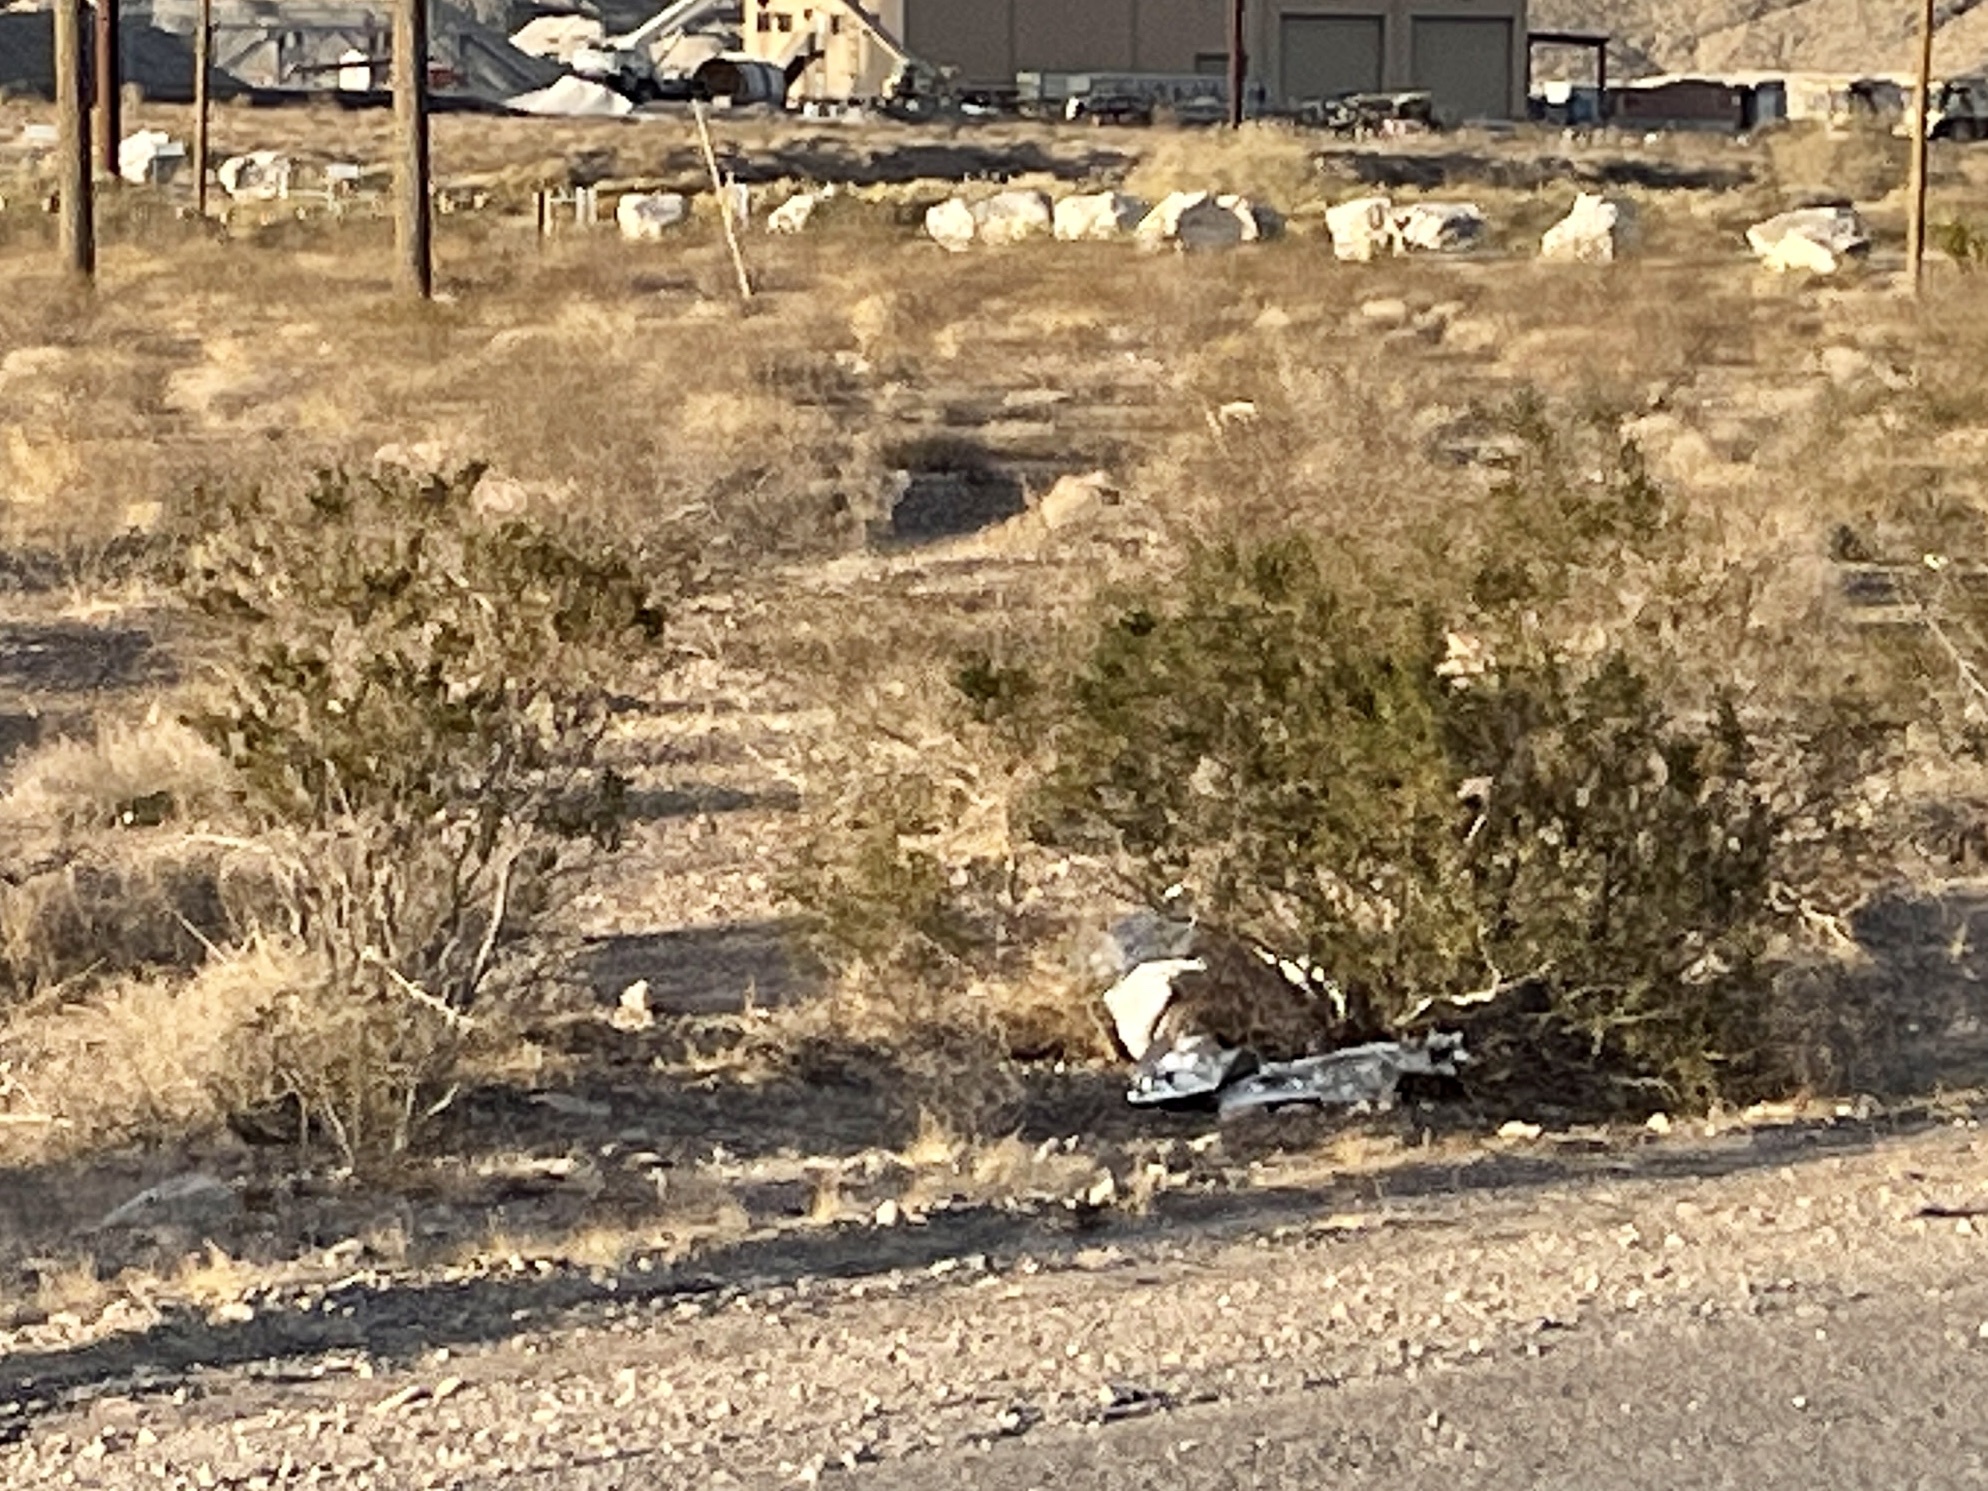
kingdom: Plantae
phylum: Tracheophyta
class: Magnoliopsida
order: Zygophyllales
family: Zygophyllaceae
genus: Larrea
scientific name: Larrea tridentata
